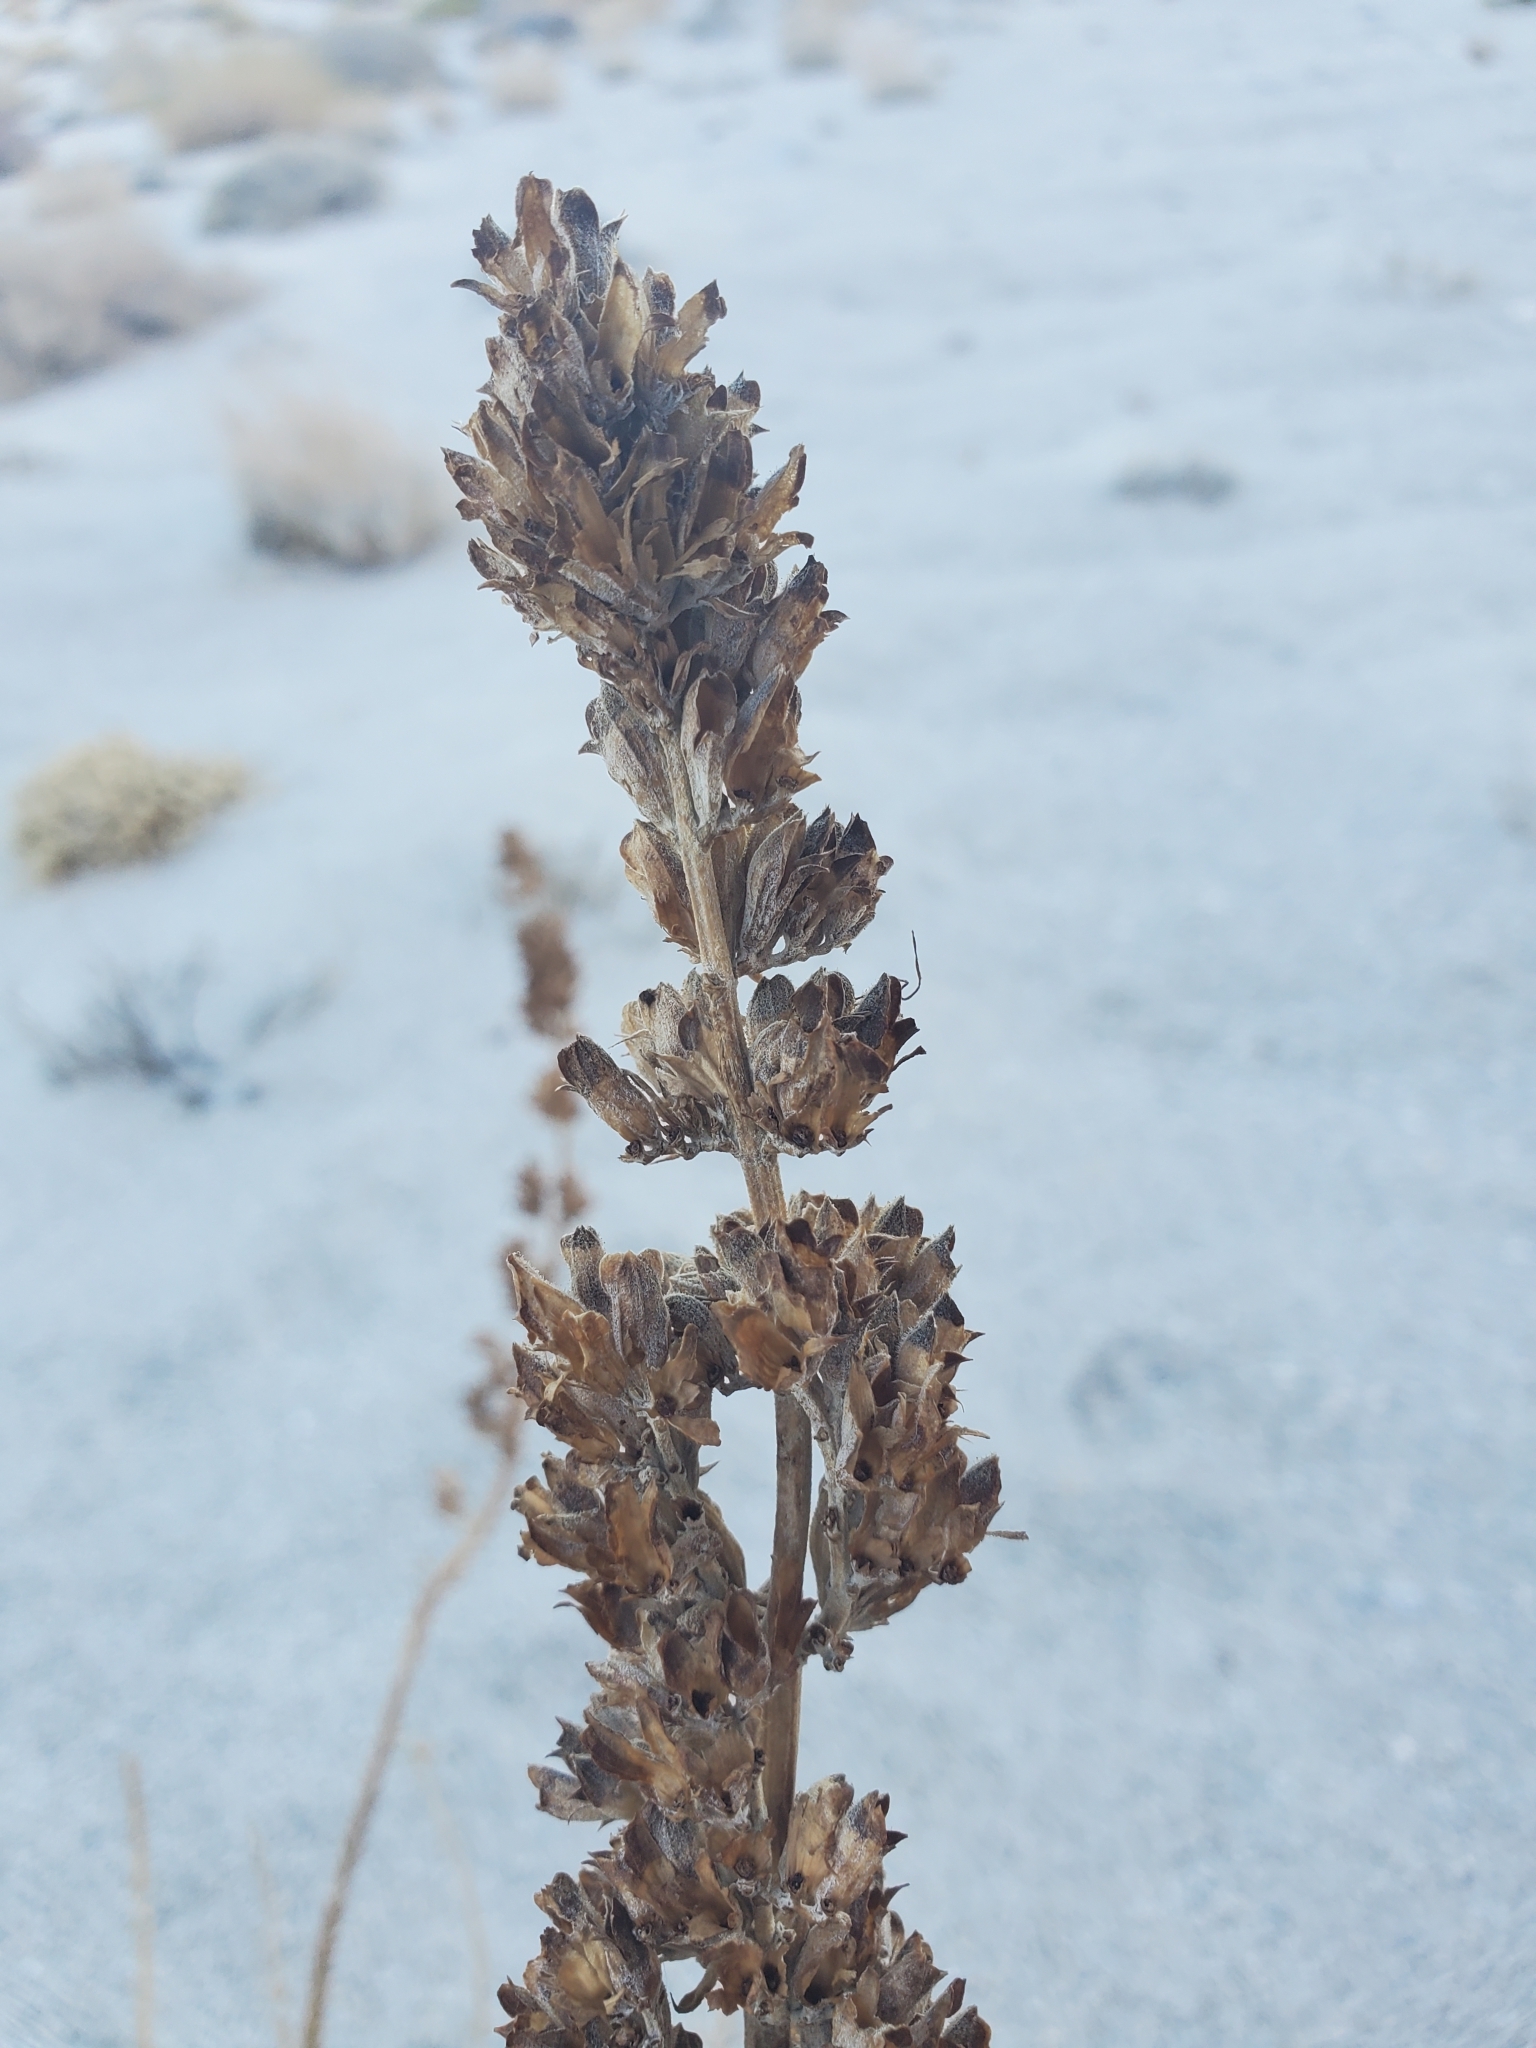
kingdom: Plantae
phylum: Tracheophyta
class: Magnoliopsida
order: Lamiales
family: Lamiaceae
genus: Salvia
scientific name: Salvia apiana
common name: White sage
